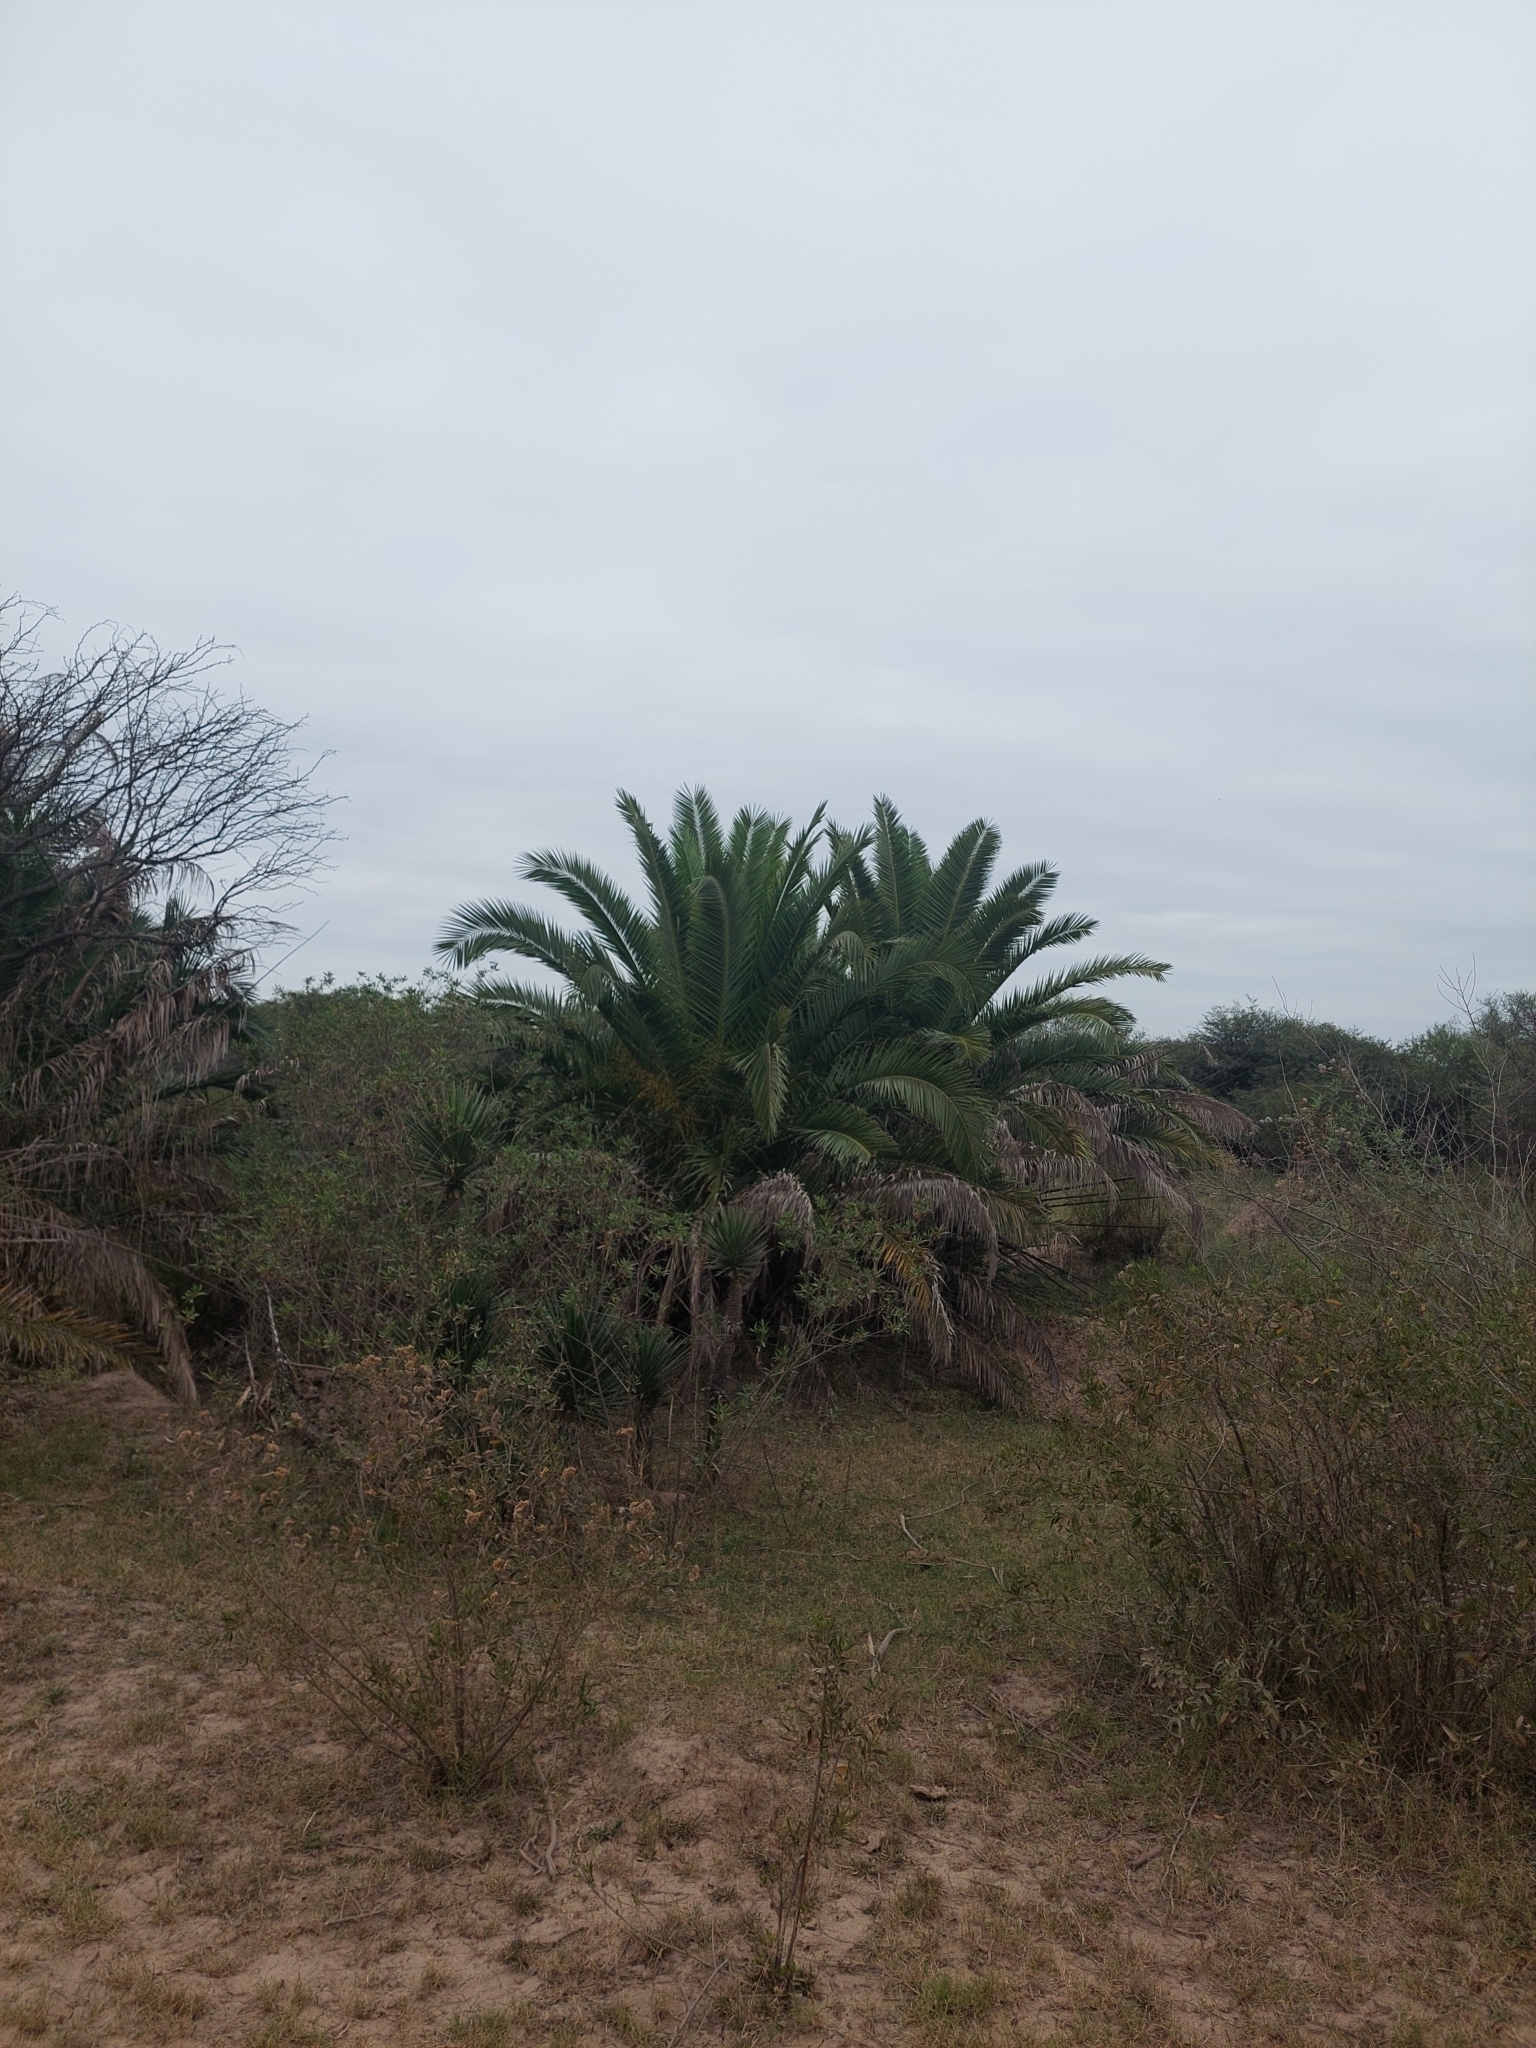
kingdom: Plantae
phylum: Tracheophyta
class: Liliopsida
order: Arecales
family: Arecaceae
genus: Phoenix
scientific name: Phoenix canariensis
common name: Canary island date palm
